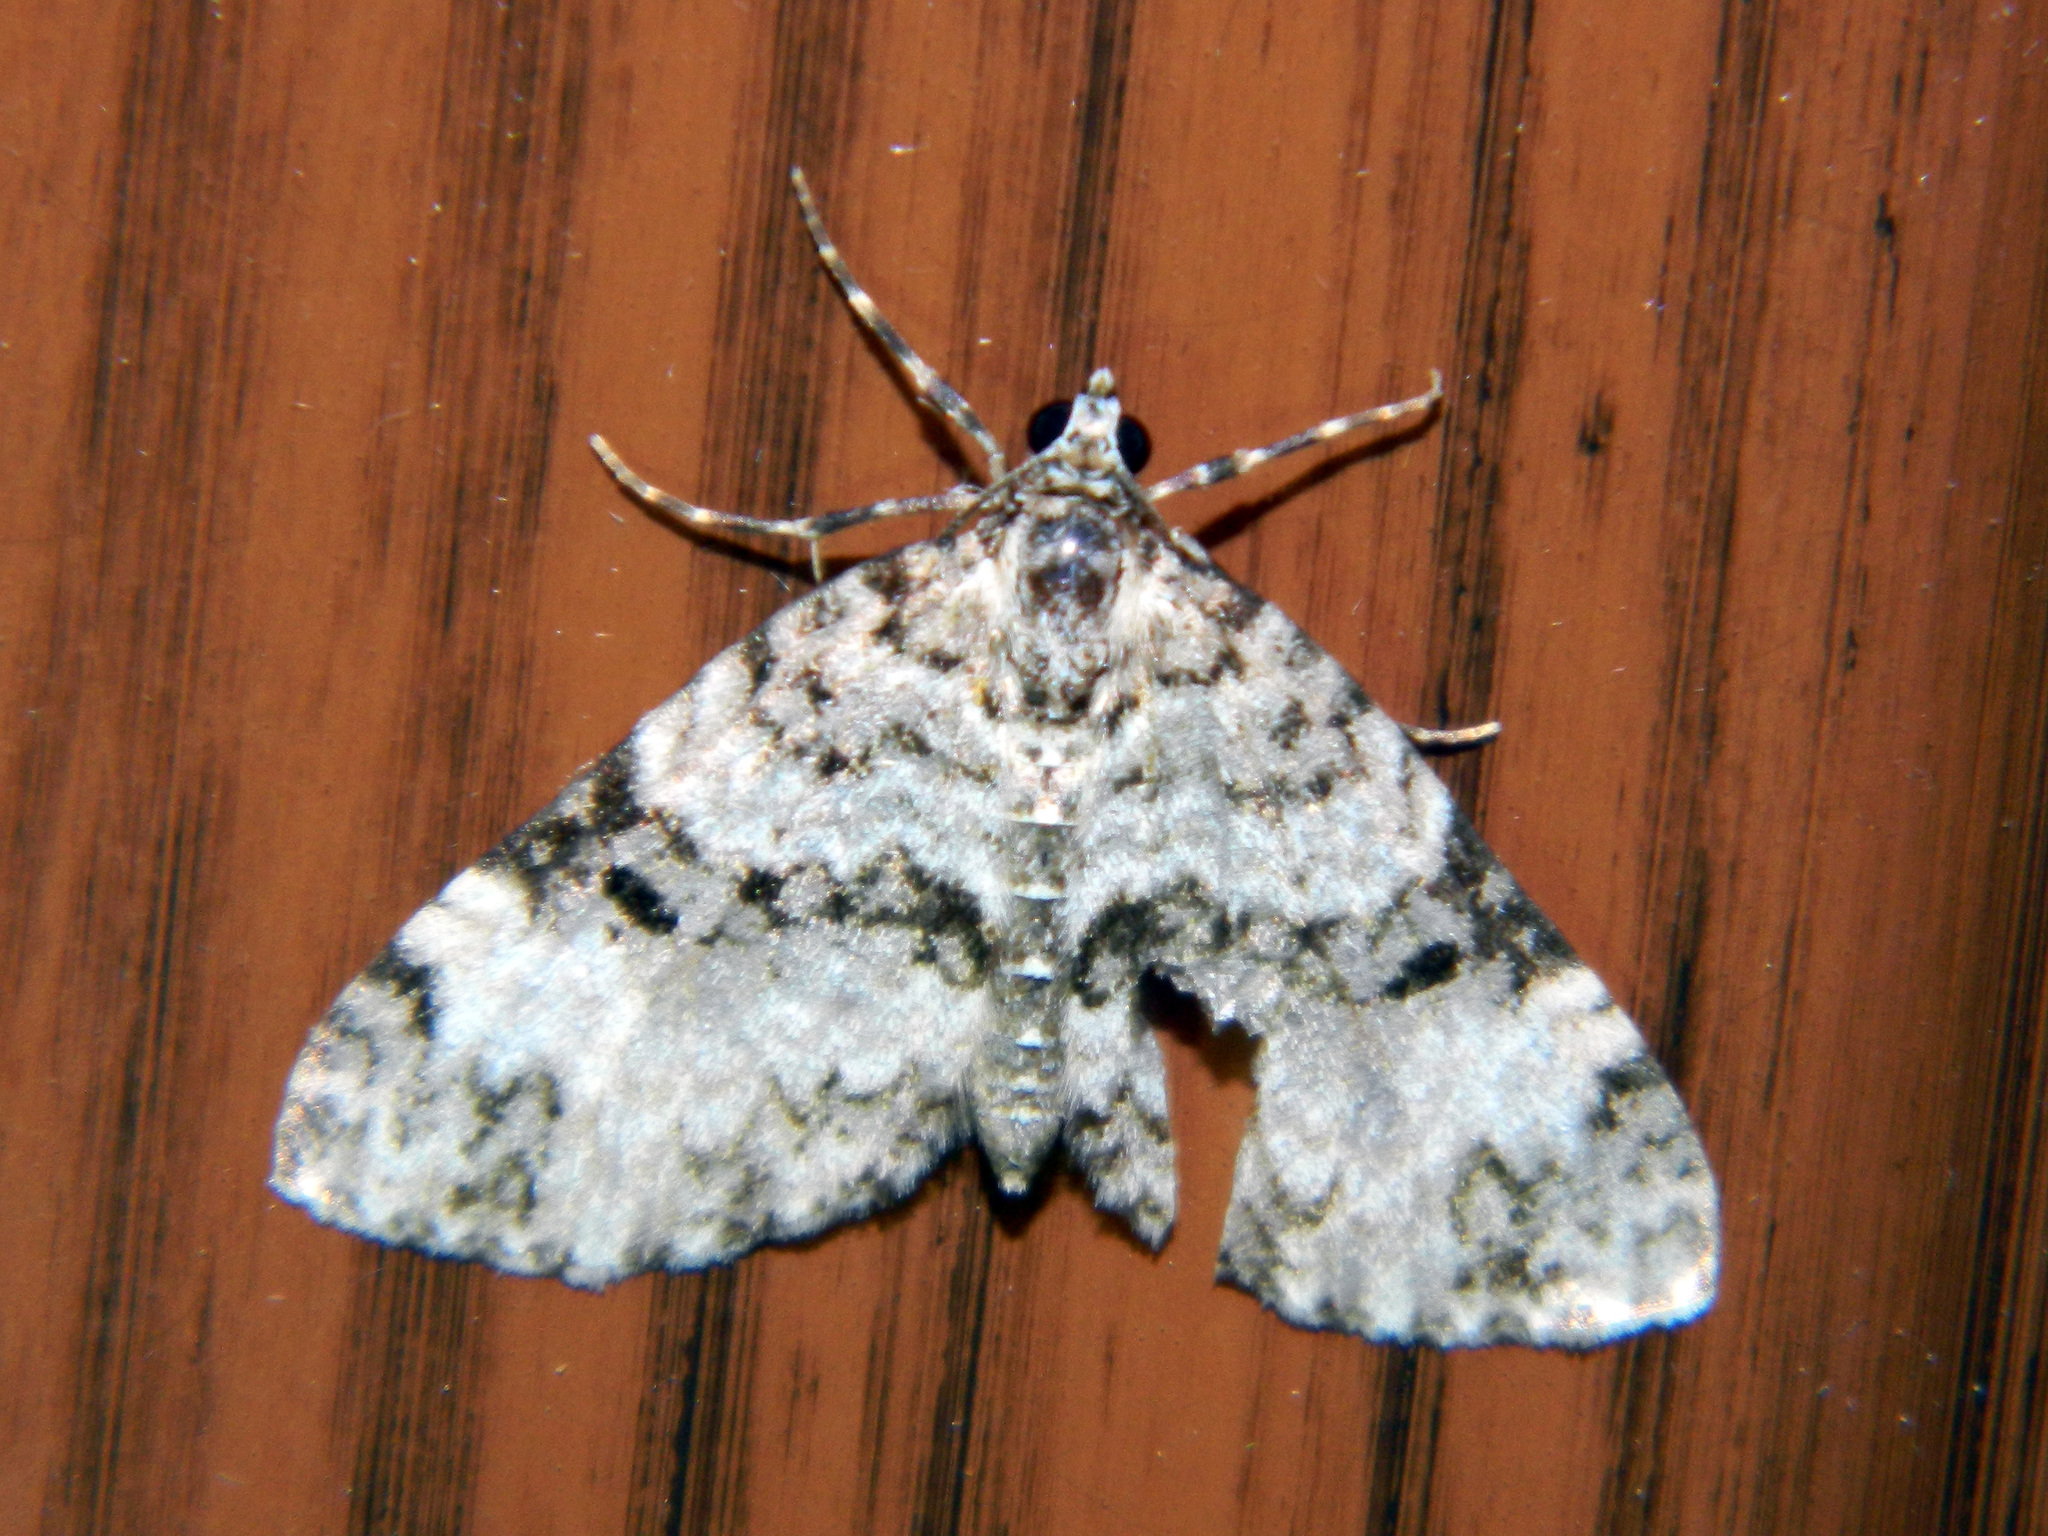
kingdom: Animalia
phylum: Arthropoda
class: Insecta
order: Lepidoptera
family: Geometridae
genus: Spargania
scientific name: Spargania magnoliata
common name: Double-banded carpet
